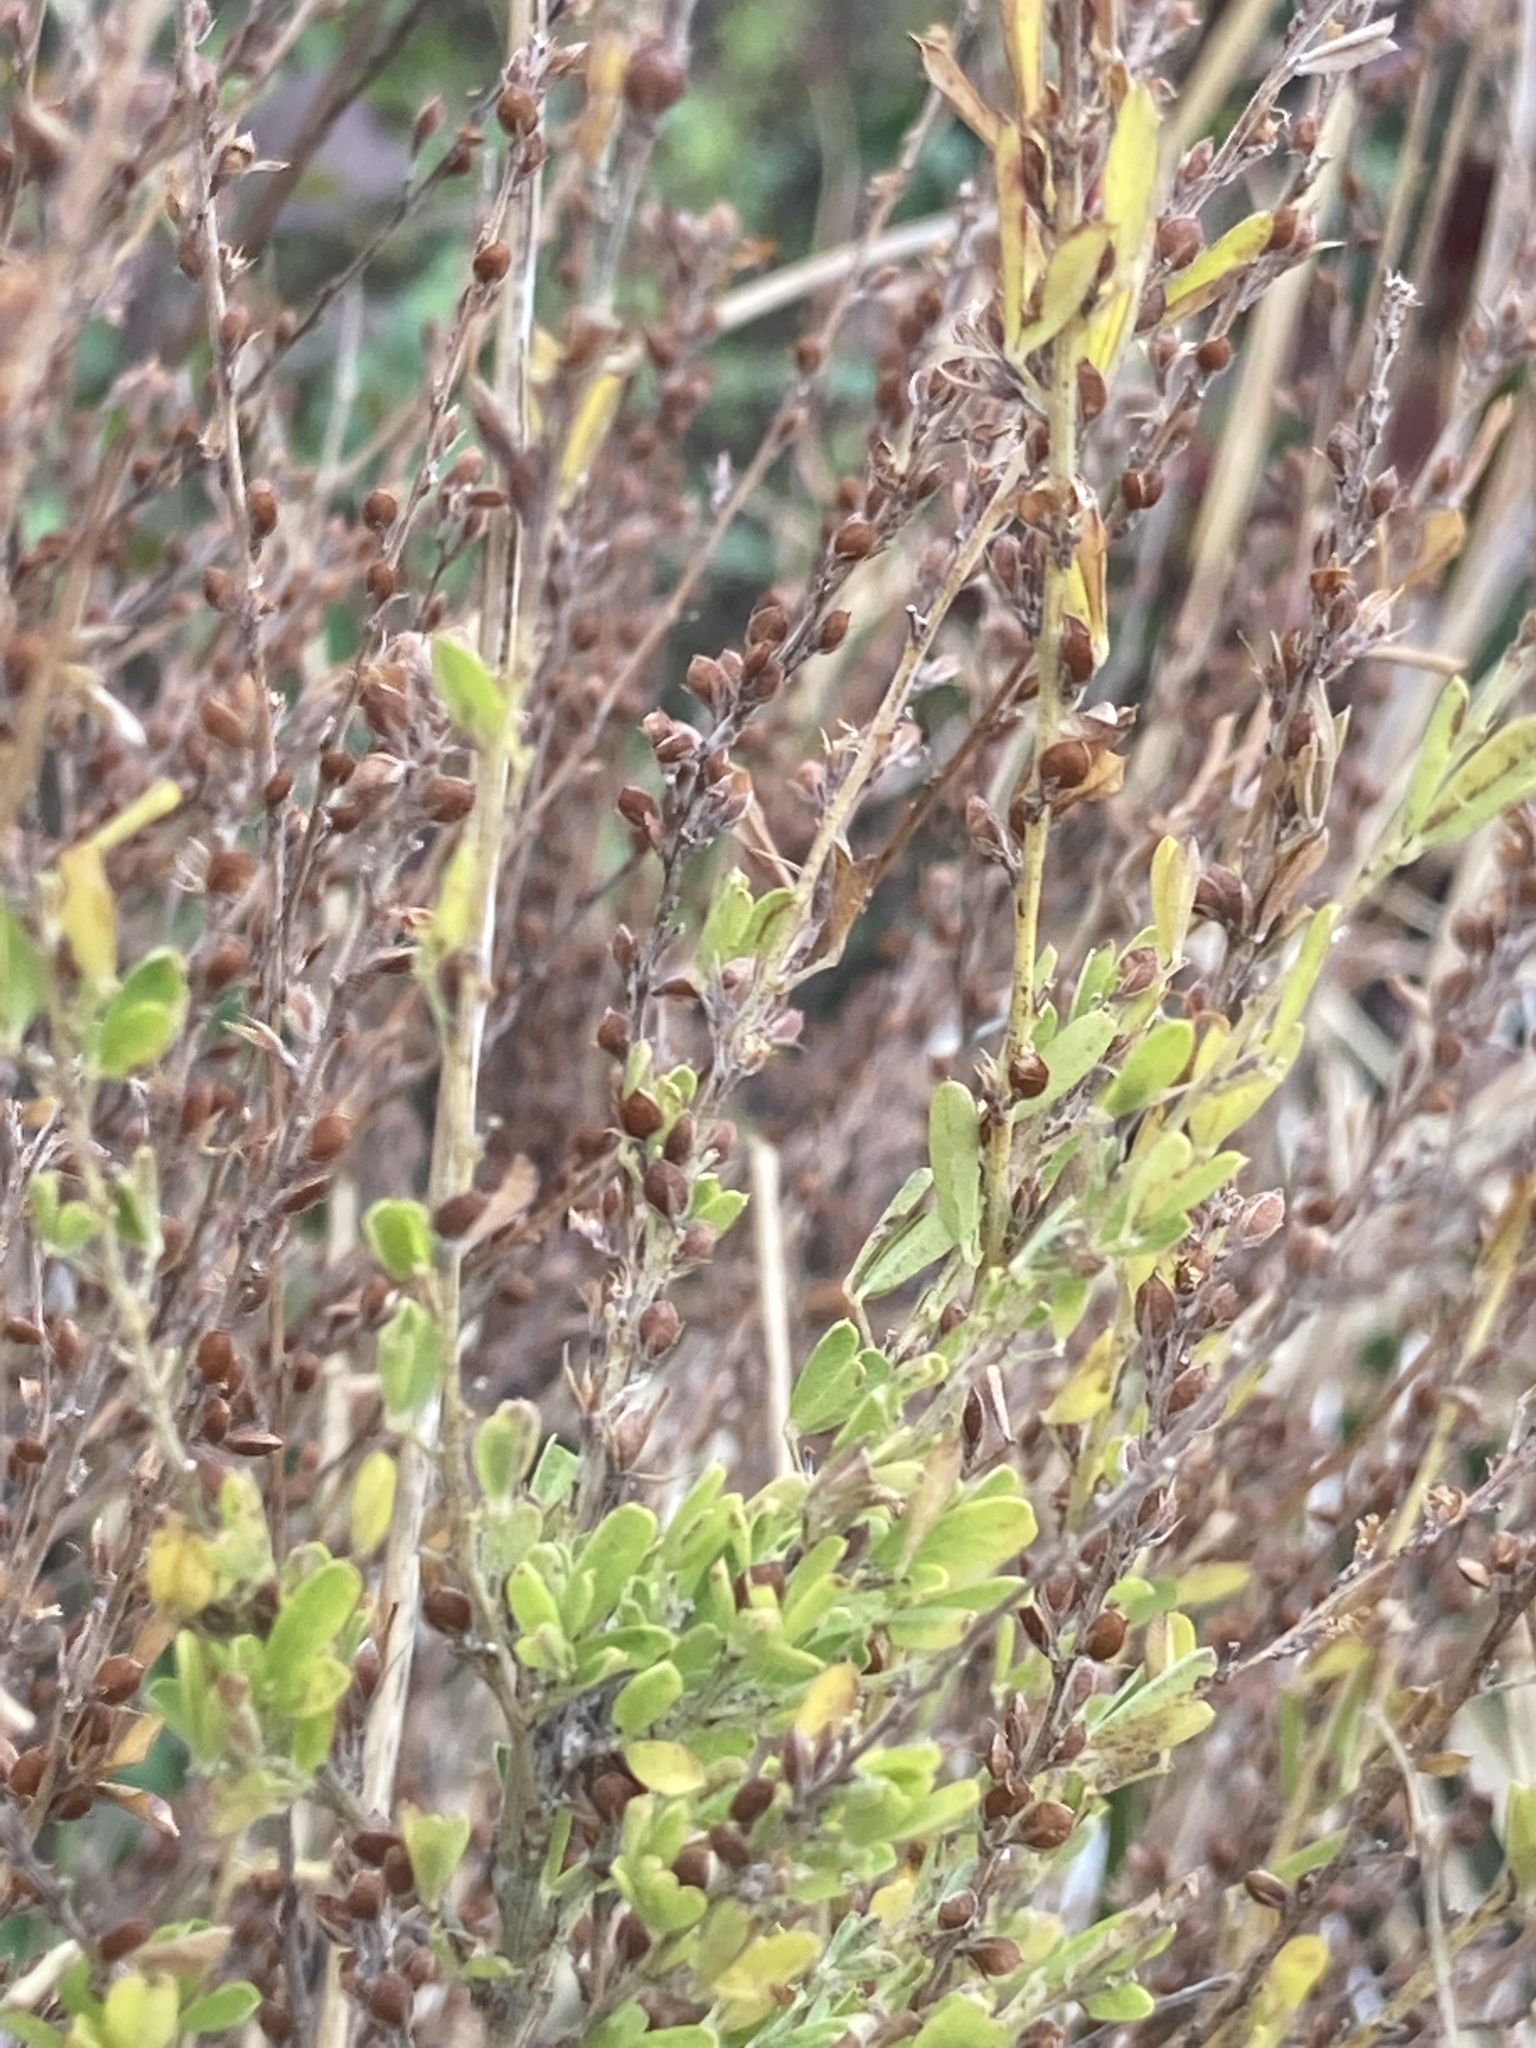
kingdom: Plantae
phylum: Tracheophyta
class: Magnoliopsida
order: Fabales
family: Fabaceae
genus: Lespedeza
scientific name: Lespedeza cuneata
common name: Chinese bush-clover
